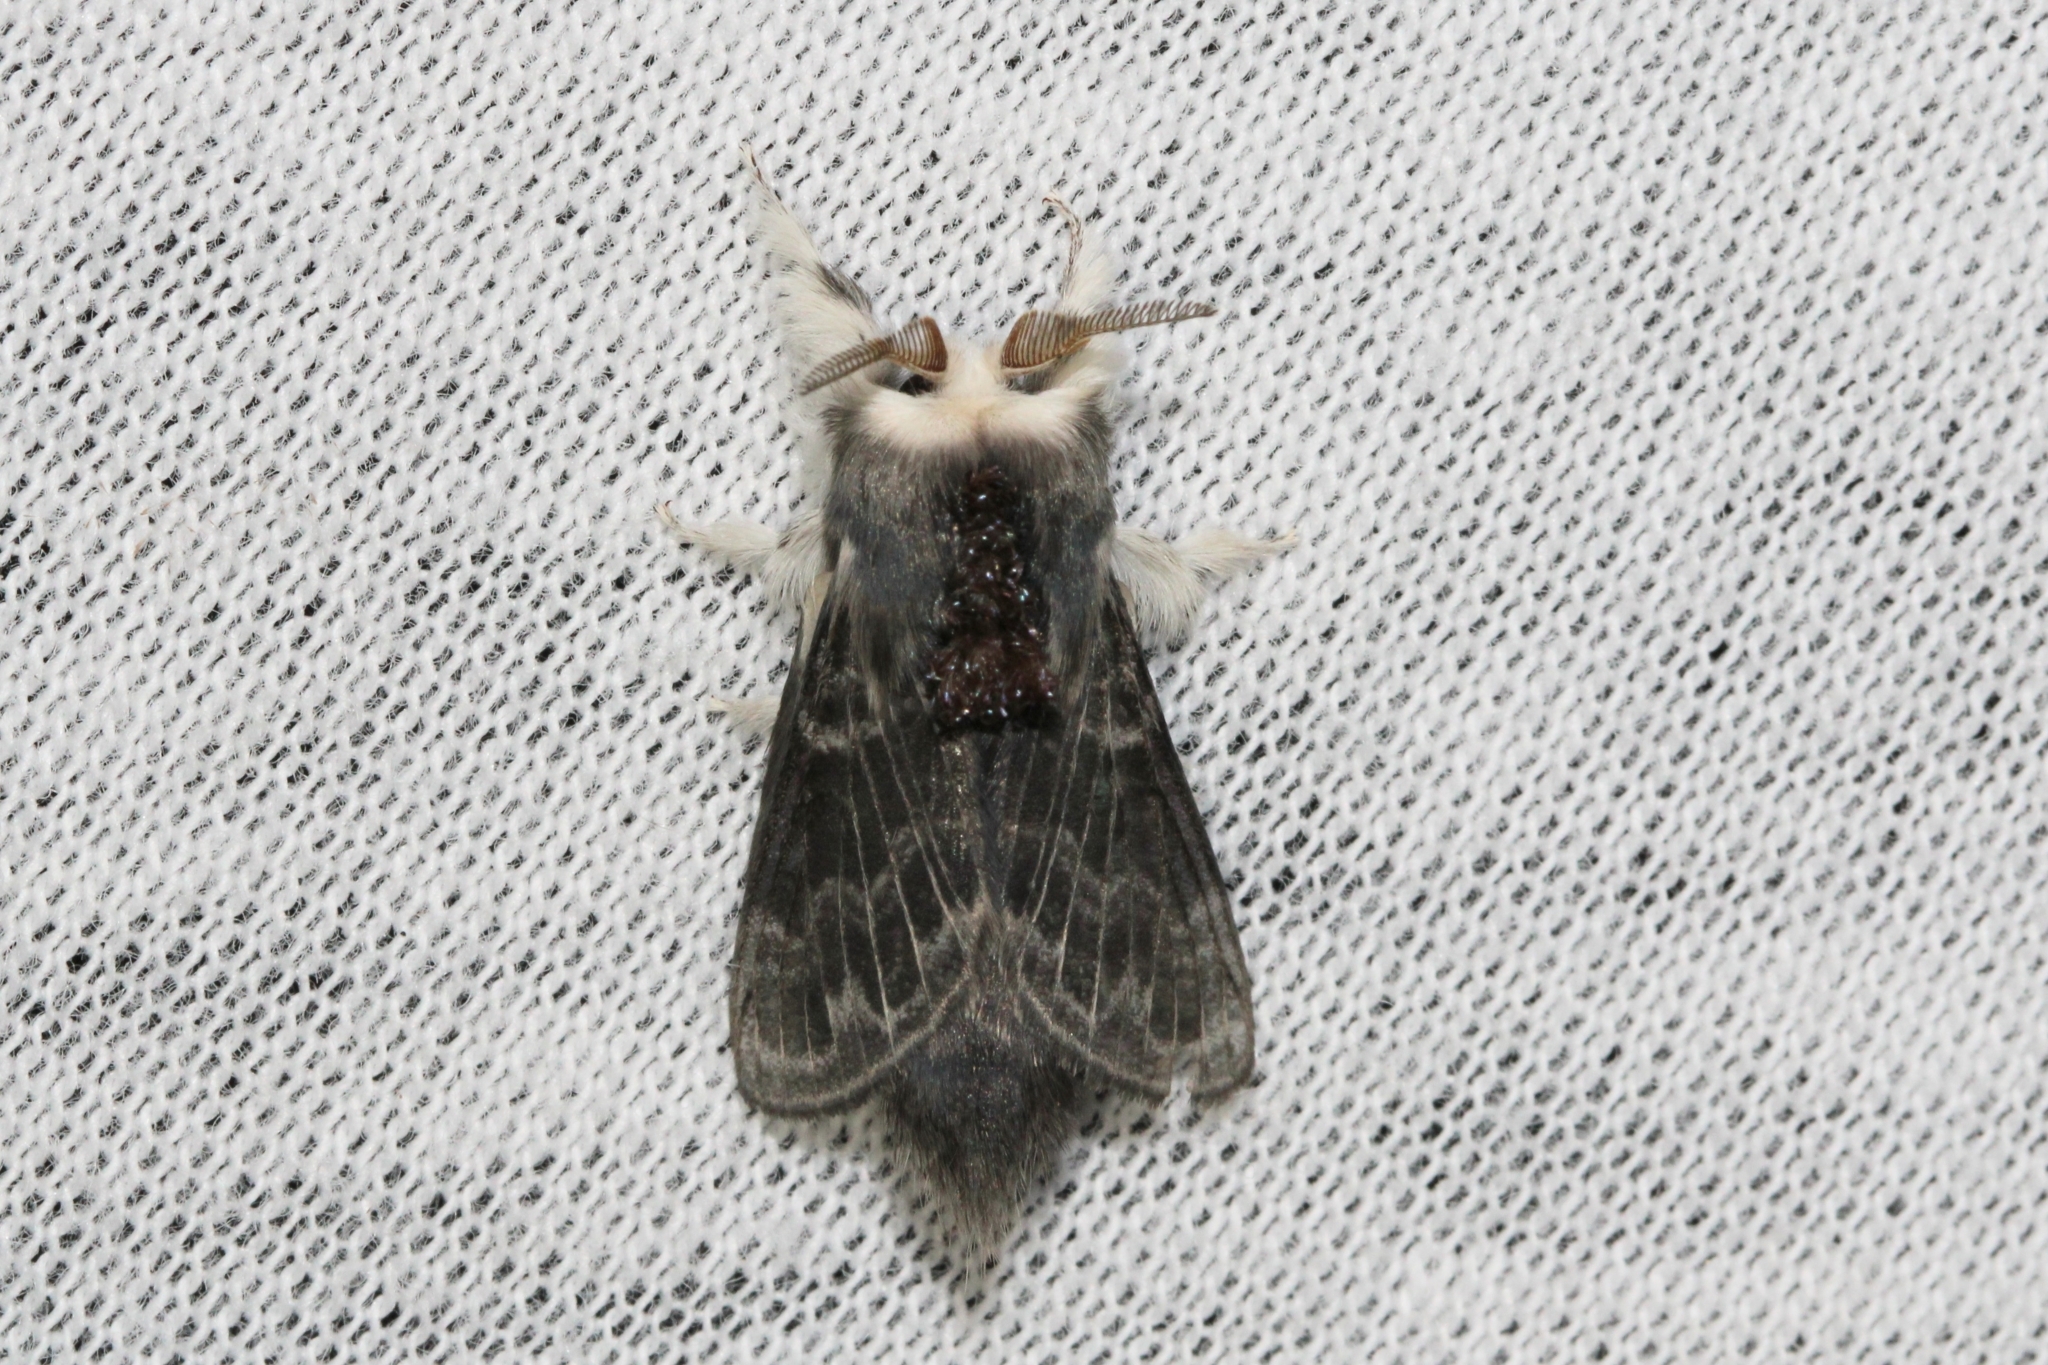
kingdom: Animalia
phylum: Arthropoda
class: Insecta
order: Lepidoptera
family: Lasiocampidae
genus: Tolype
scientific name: Tolype laricis
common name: Larch tolype moth
